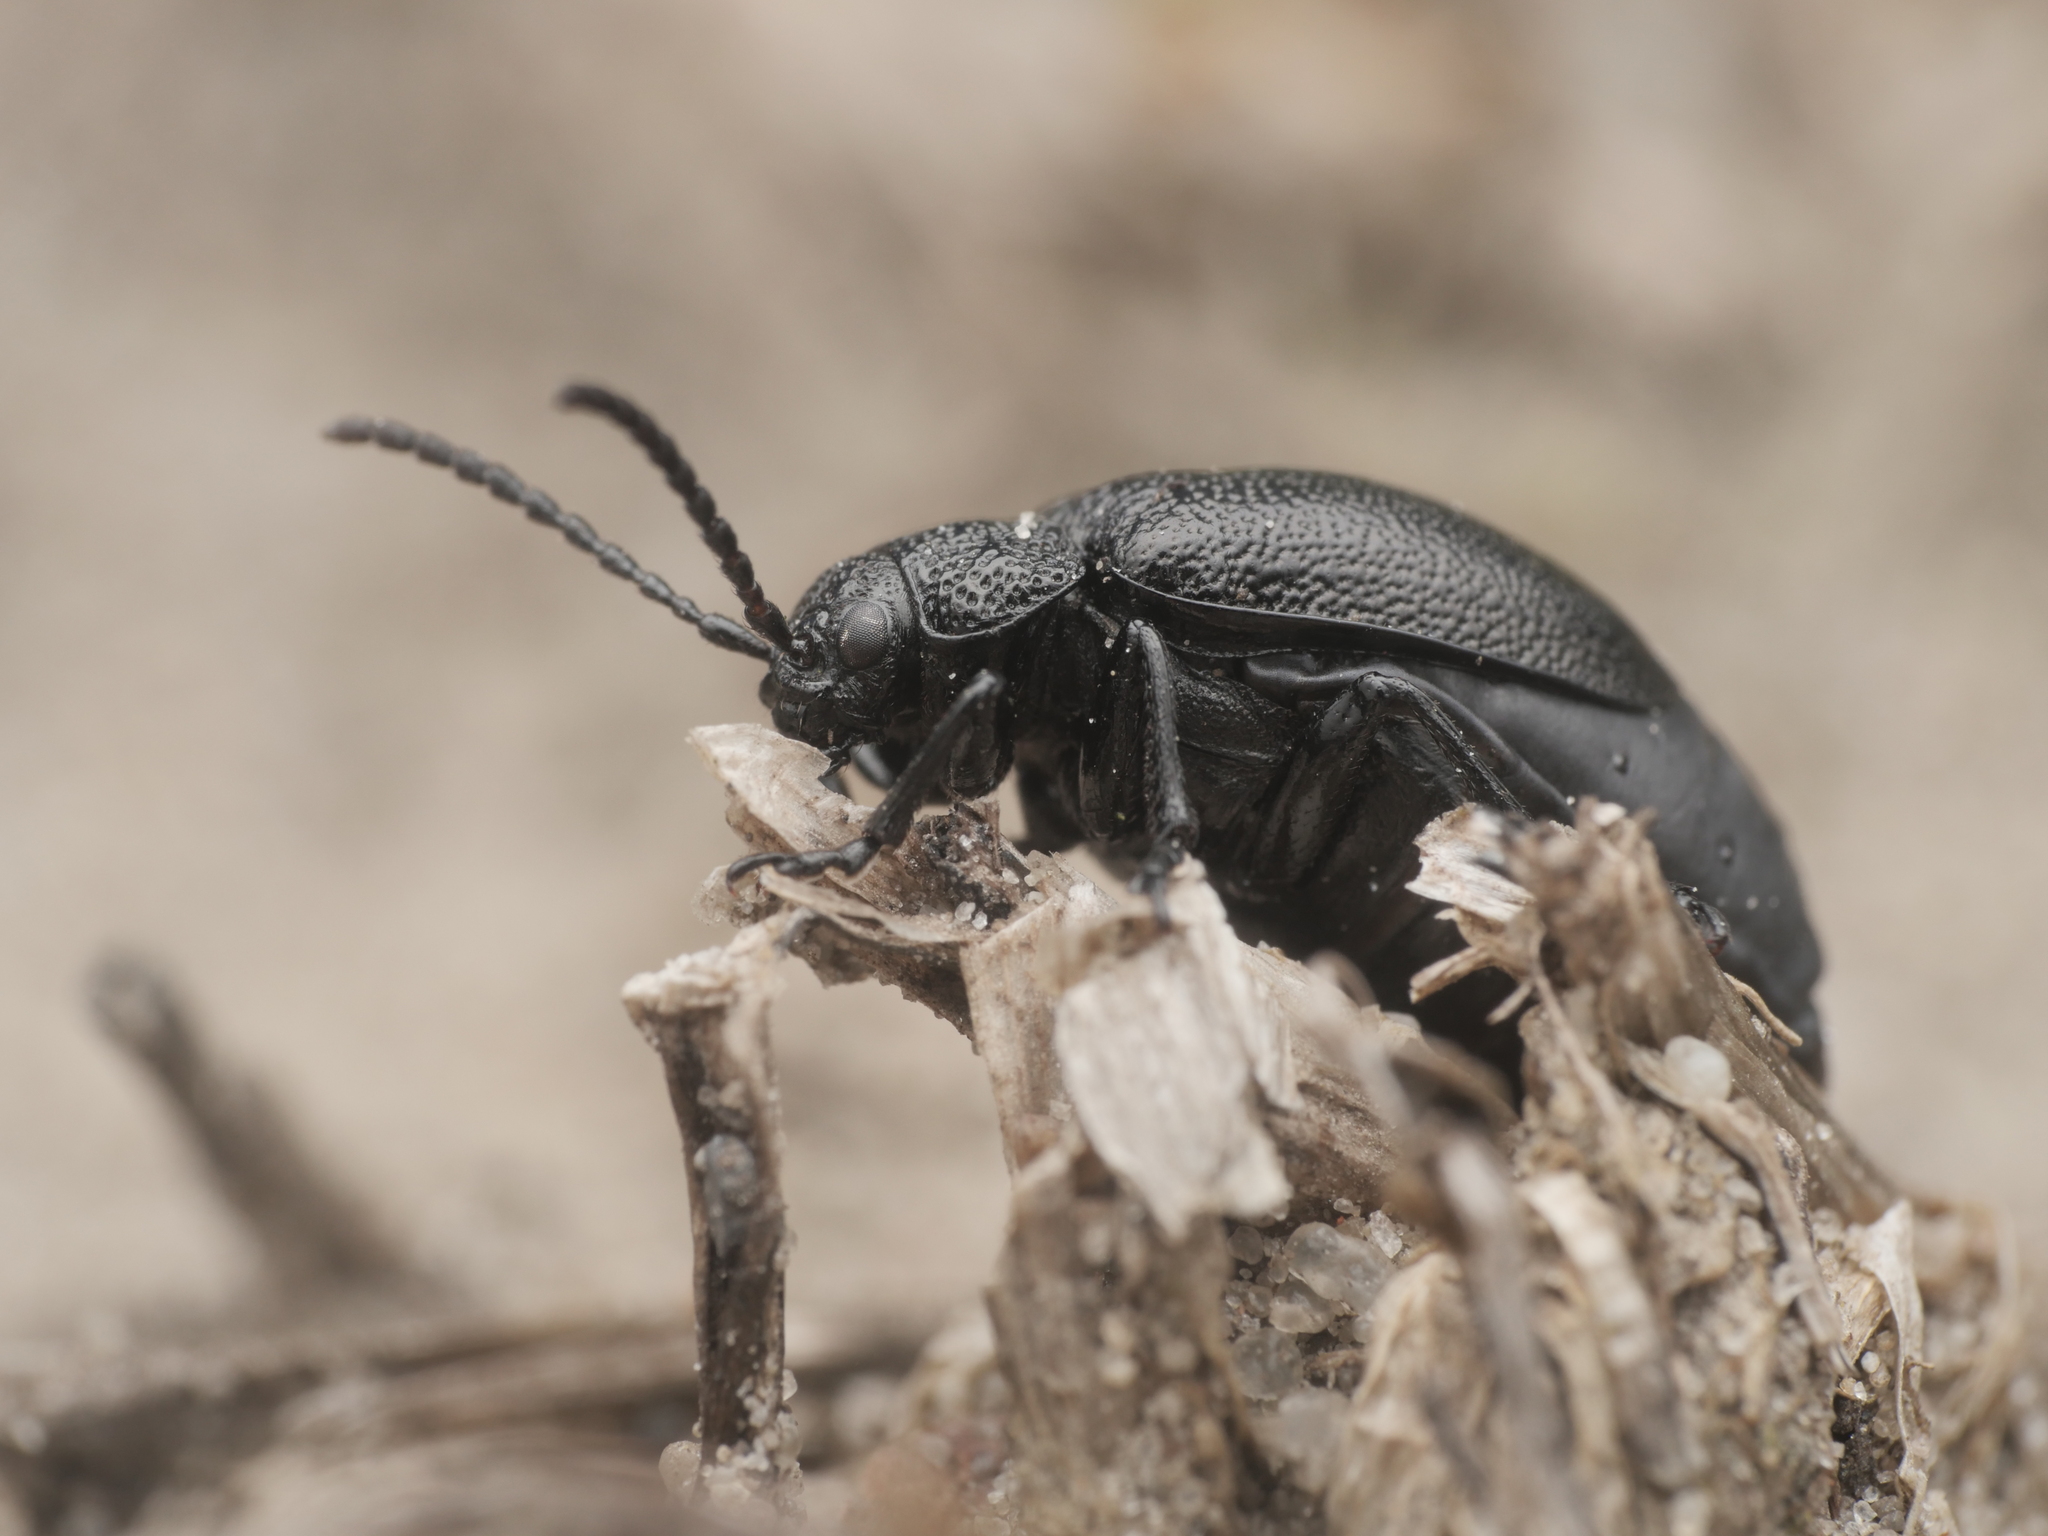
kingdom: Animalia
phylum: Arthropoda
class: Insecta
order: Coleoptera
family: Chrysomelidae
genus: Galeruca
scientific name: Galeruca tanaceti
